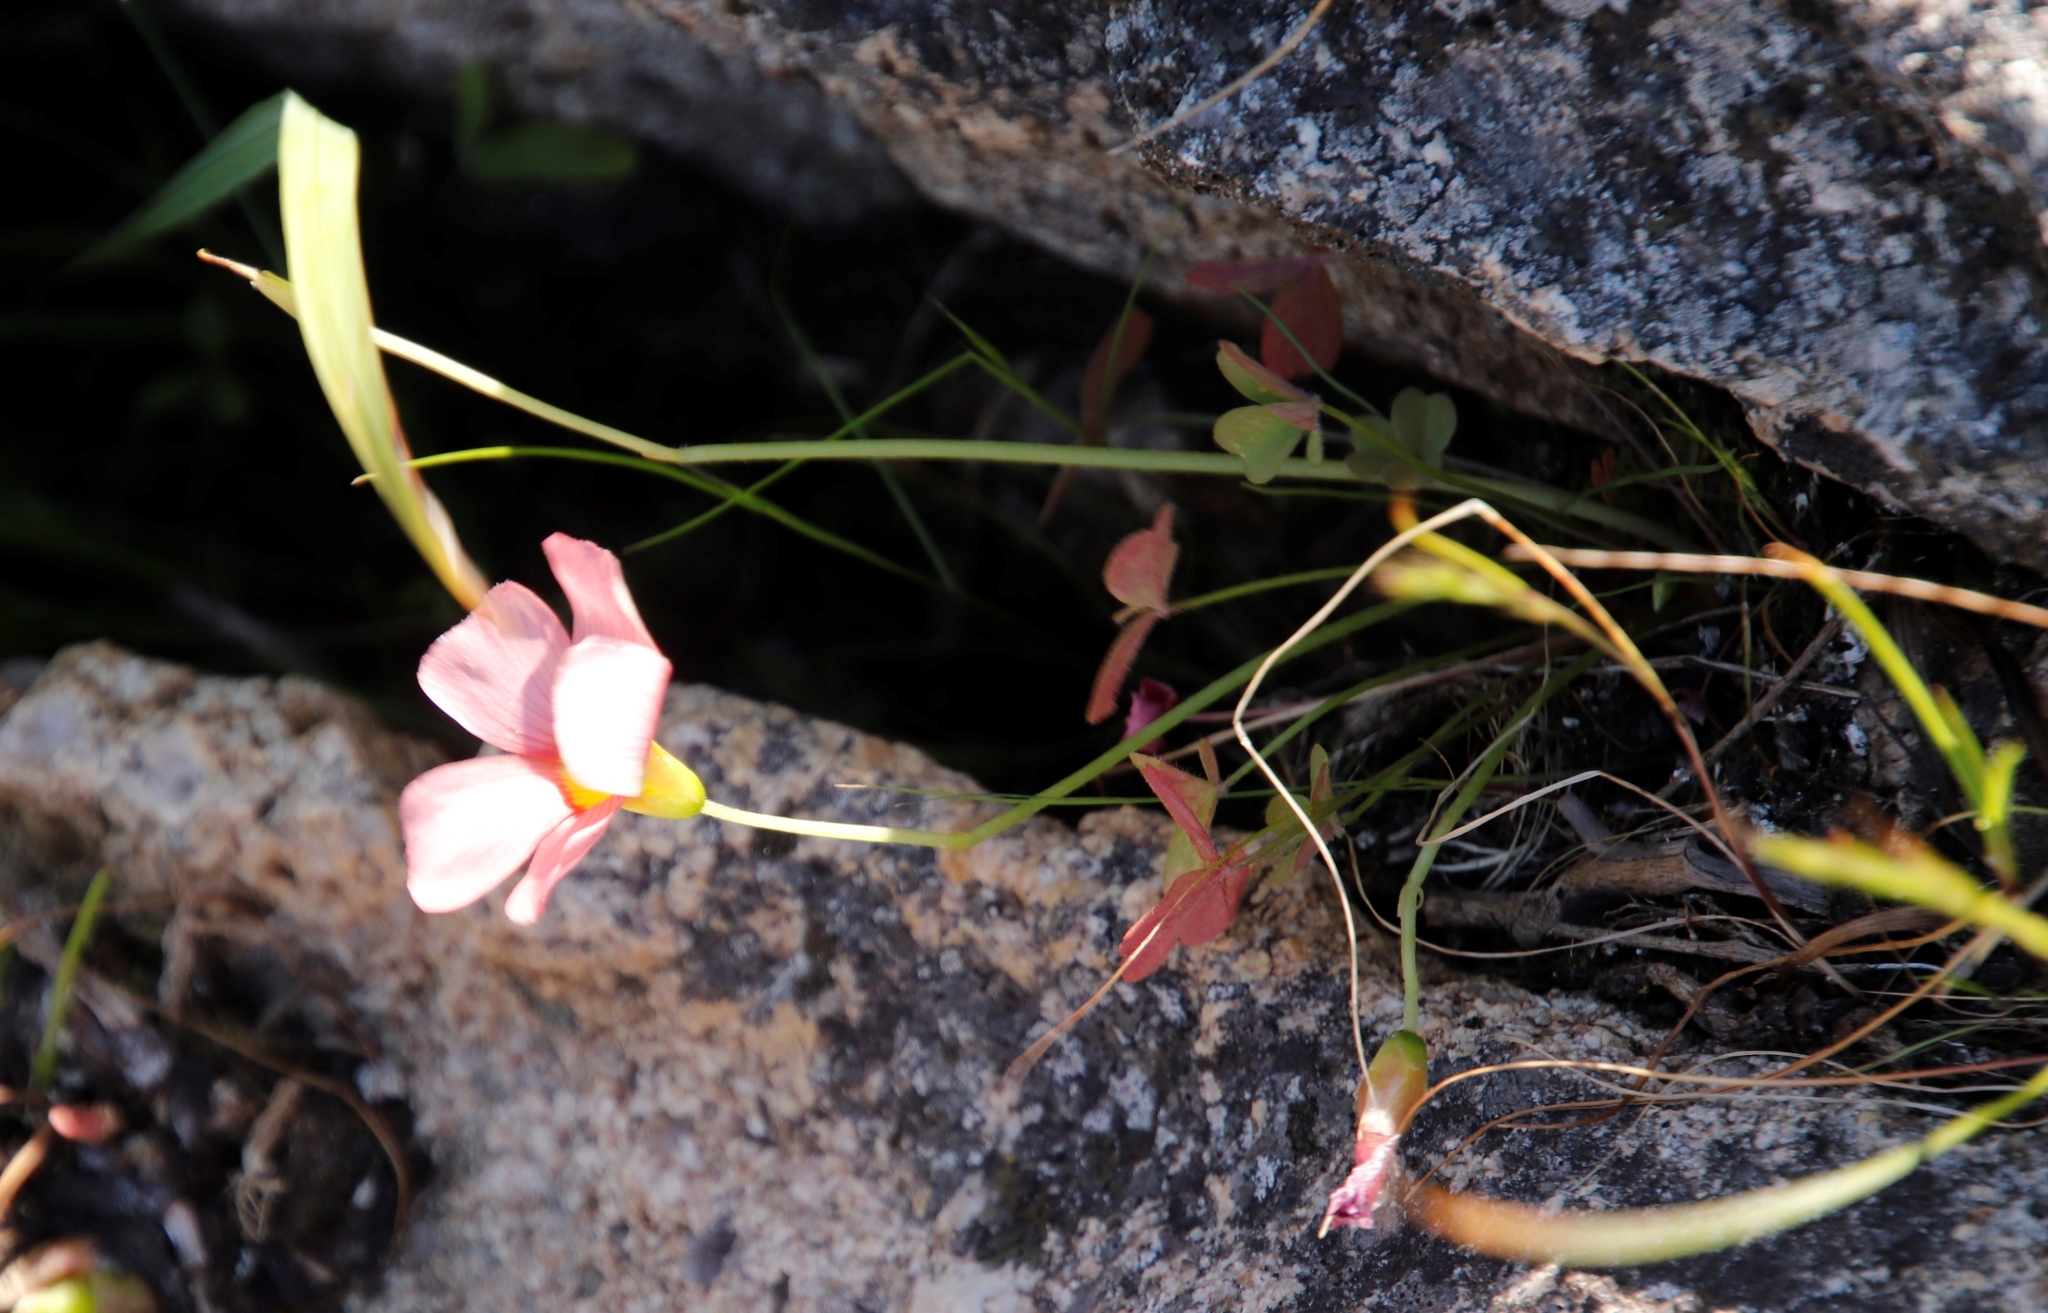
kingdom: Plantae
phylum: Tracheophyta
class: Magnoliopsida
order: Oxalidales
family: Oxalidaceae
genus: Oxalis
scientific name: Oxalis obtusa
